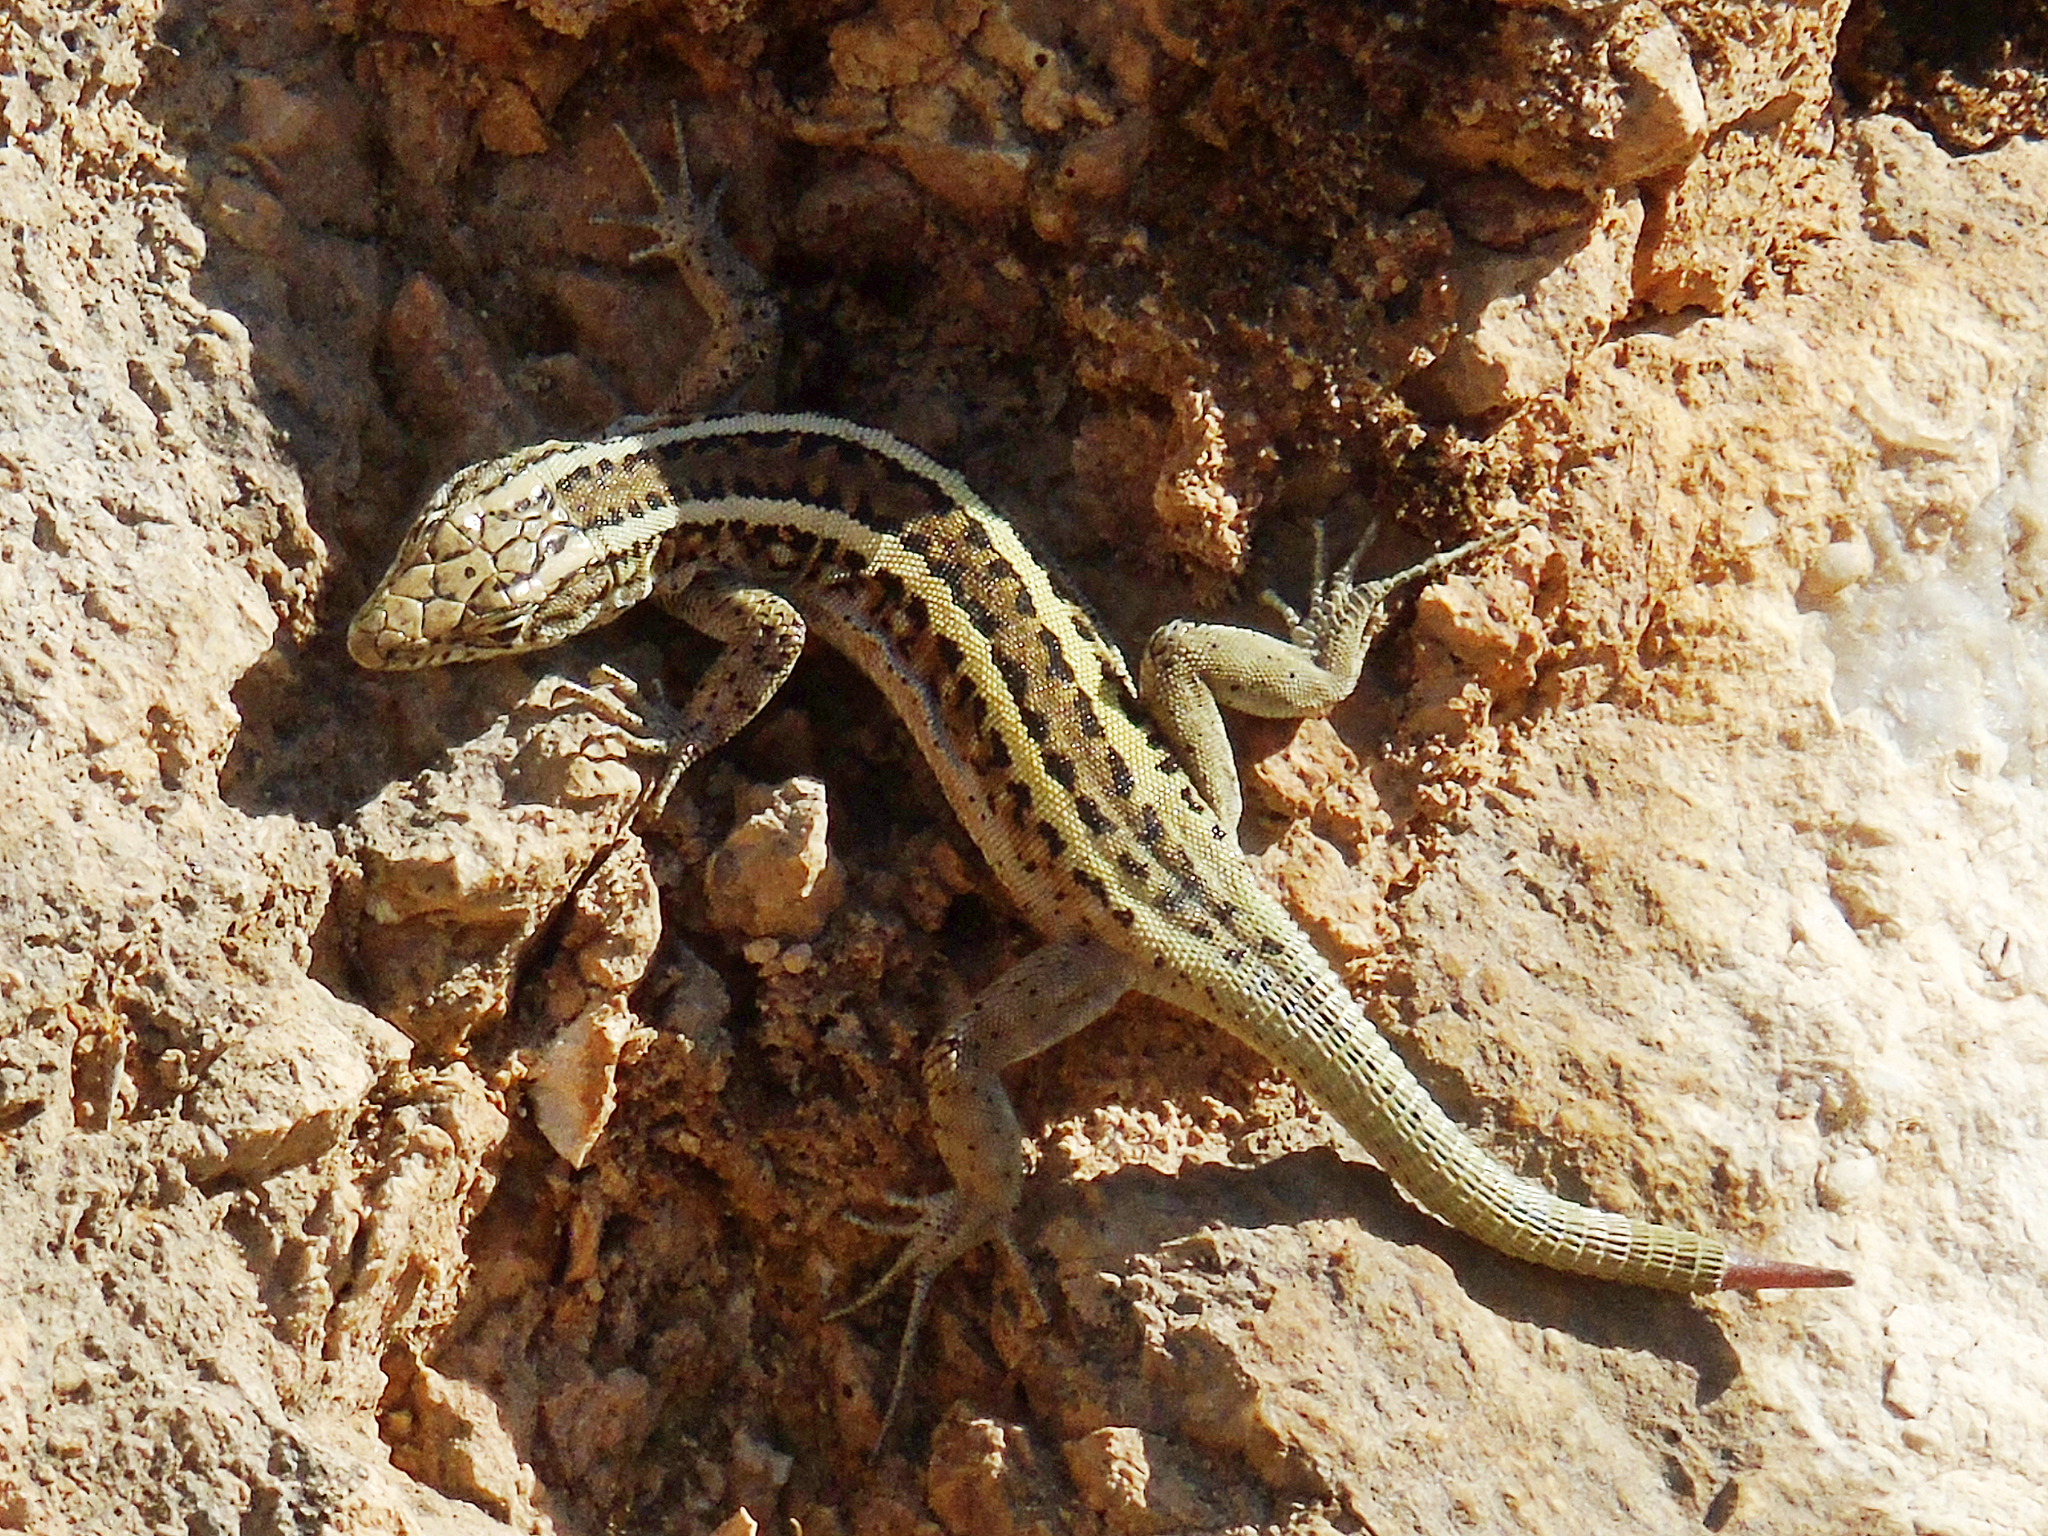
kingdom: Animalia
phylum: Chordata
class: Squamata
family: Lacertidae
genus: Apathya
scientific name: Apathya cappadocica
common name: Anatolian lizard
